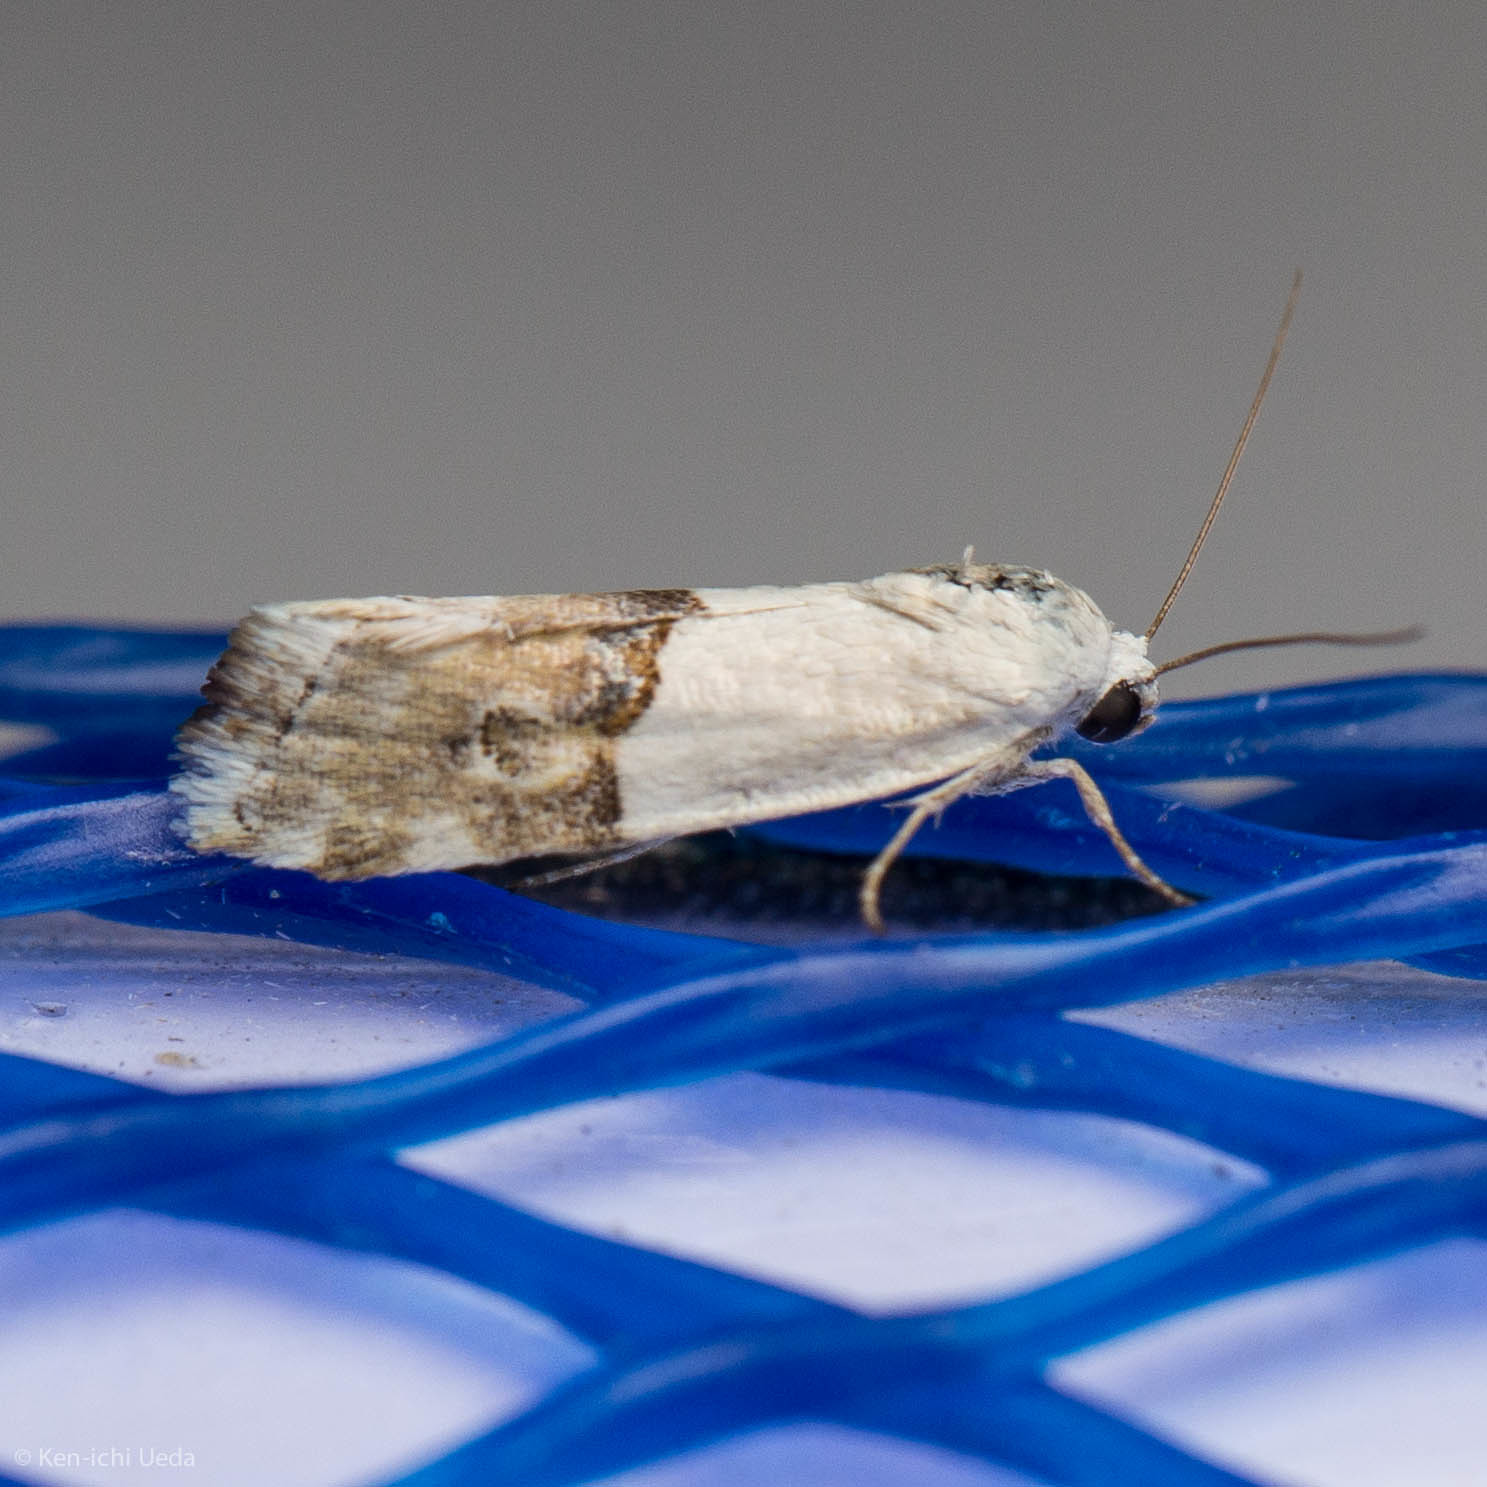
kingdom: Animalia
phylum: Arthropoda
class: Insecta
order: Lepidoptera
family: Noctuidae
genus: Ponometia
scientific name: Ponometia elegantula
